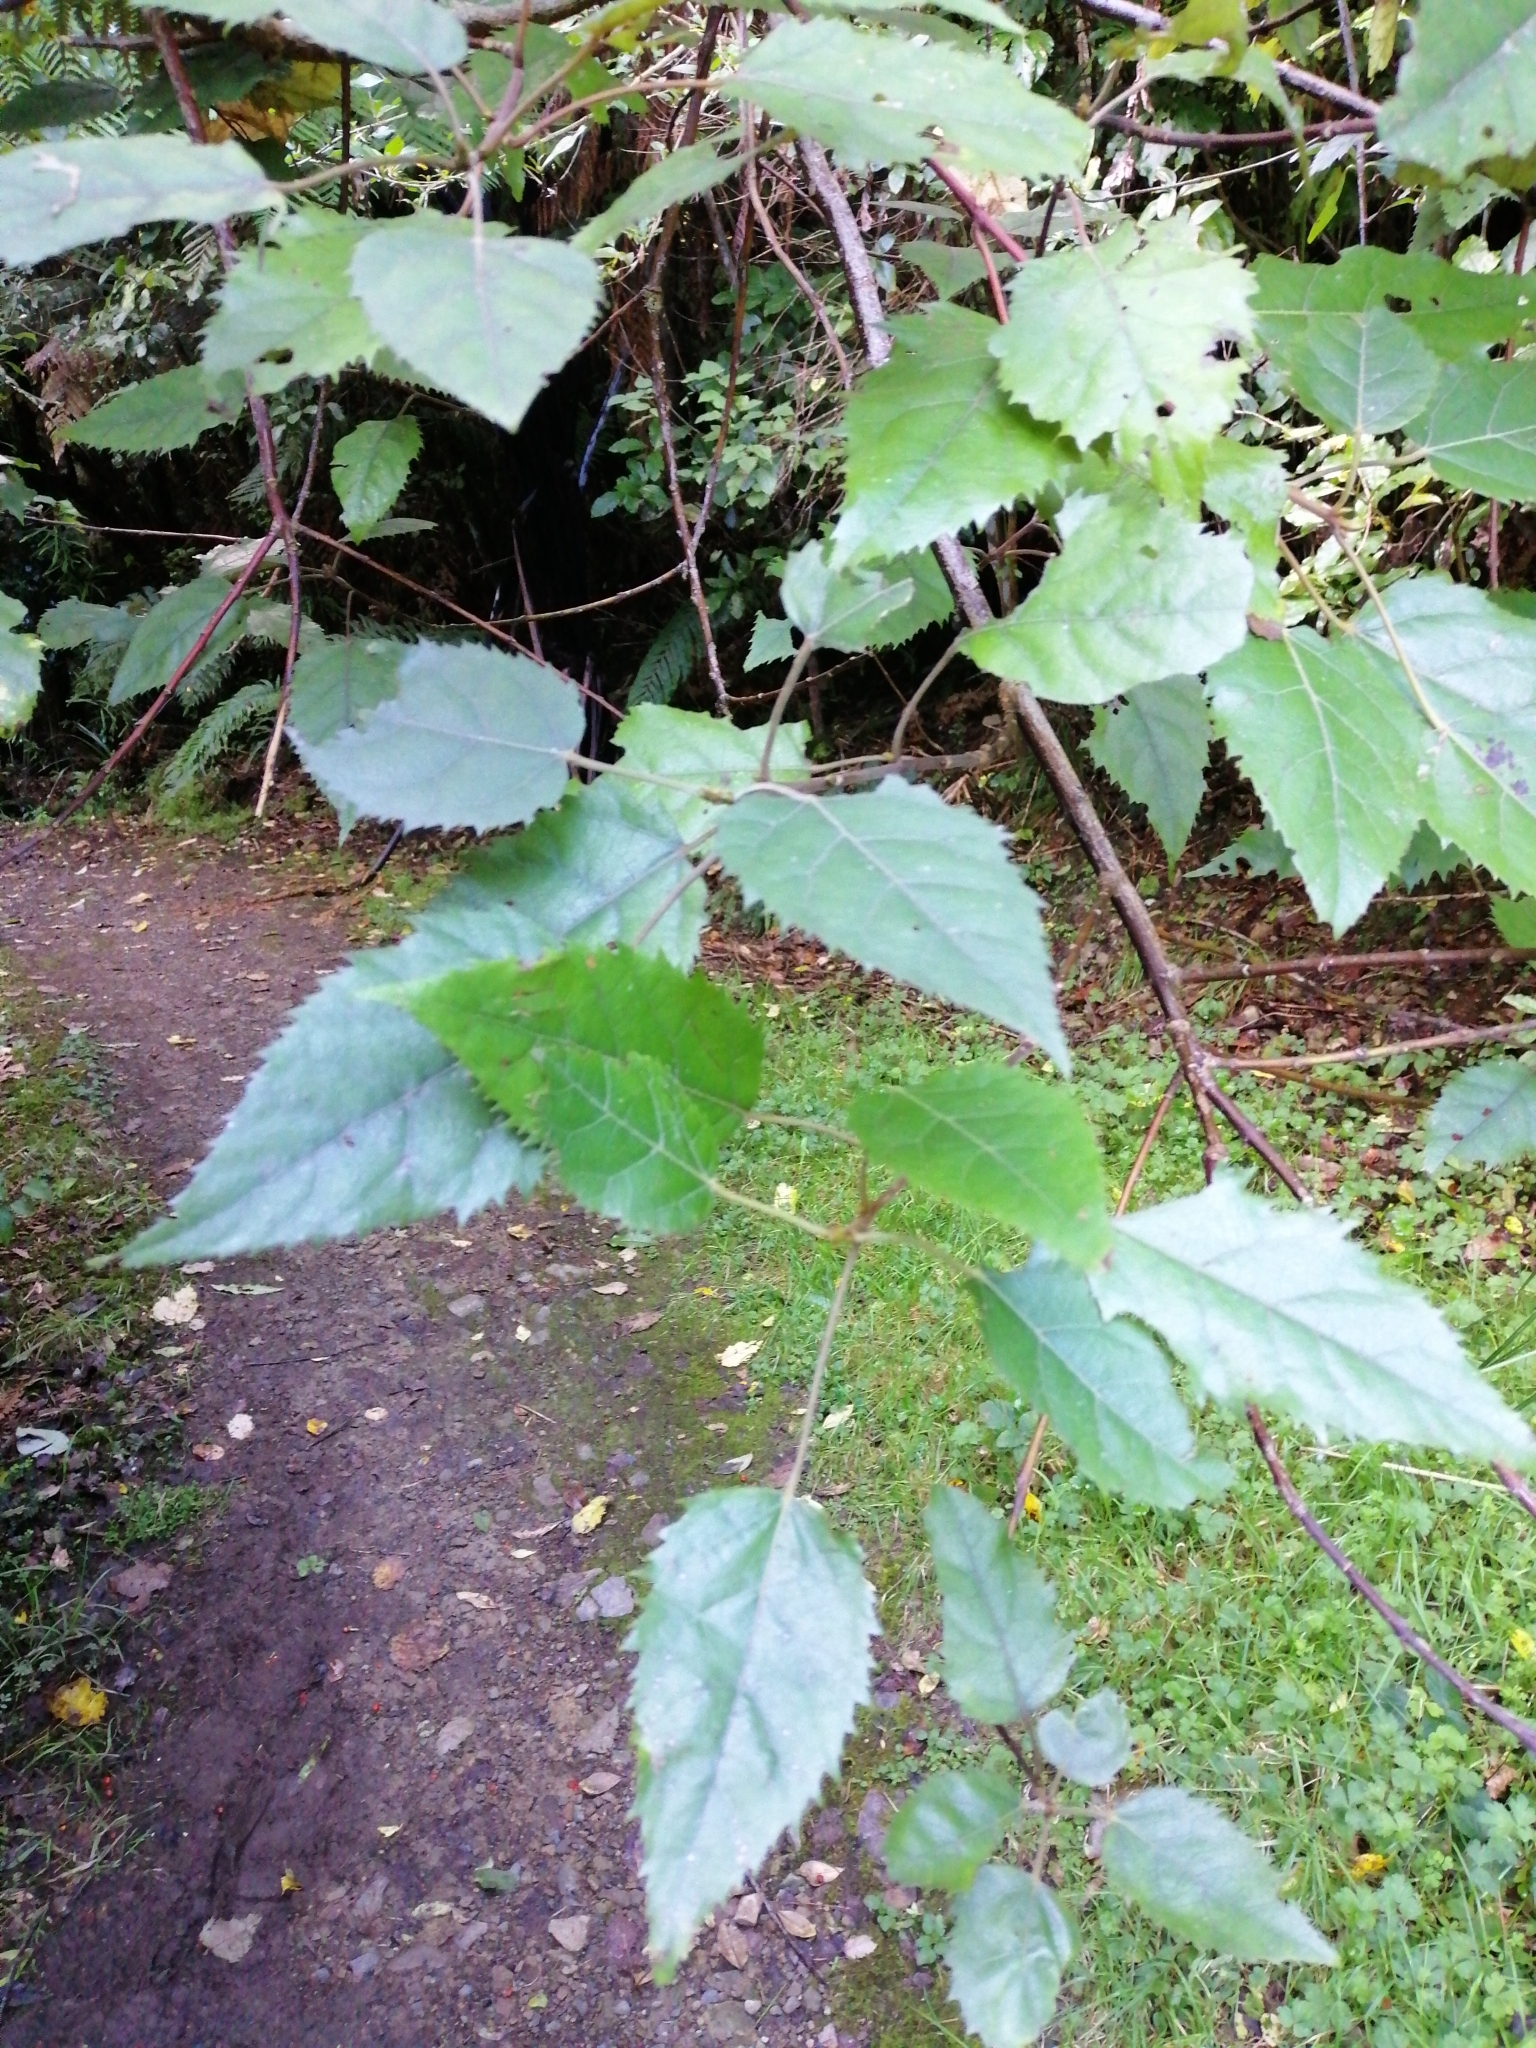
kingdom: Plantae
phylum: Tracheophyta
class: Magnoliopsida
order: Oxalidales
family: Elaeocarpaceae
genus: Aristotelia
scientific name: Aristotelia serrata
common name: New zealand wineberry
